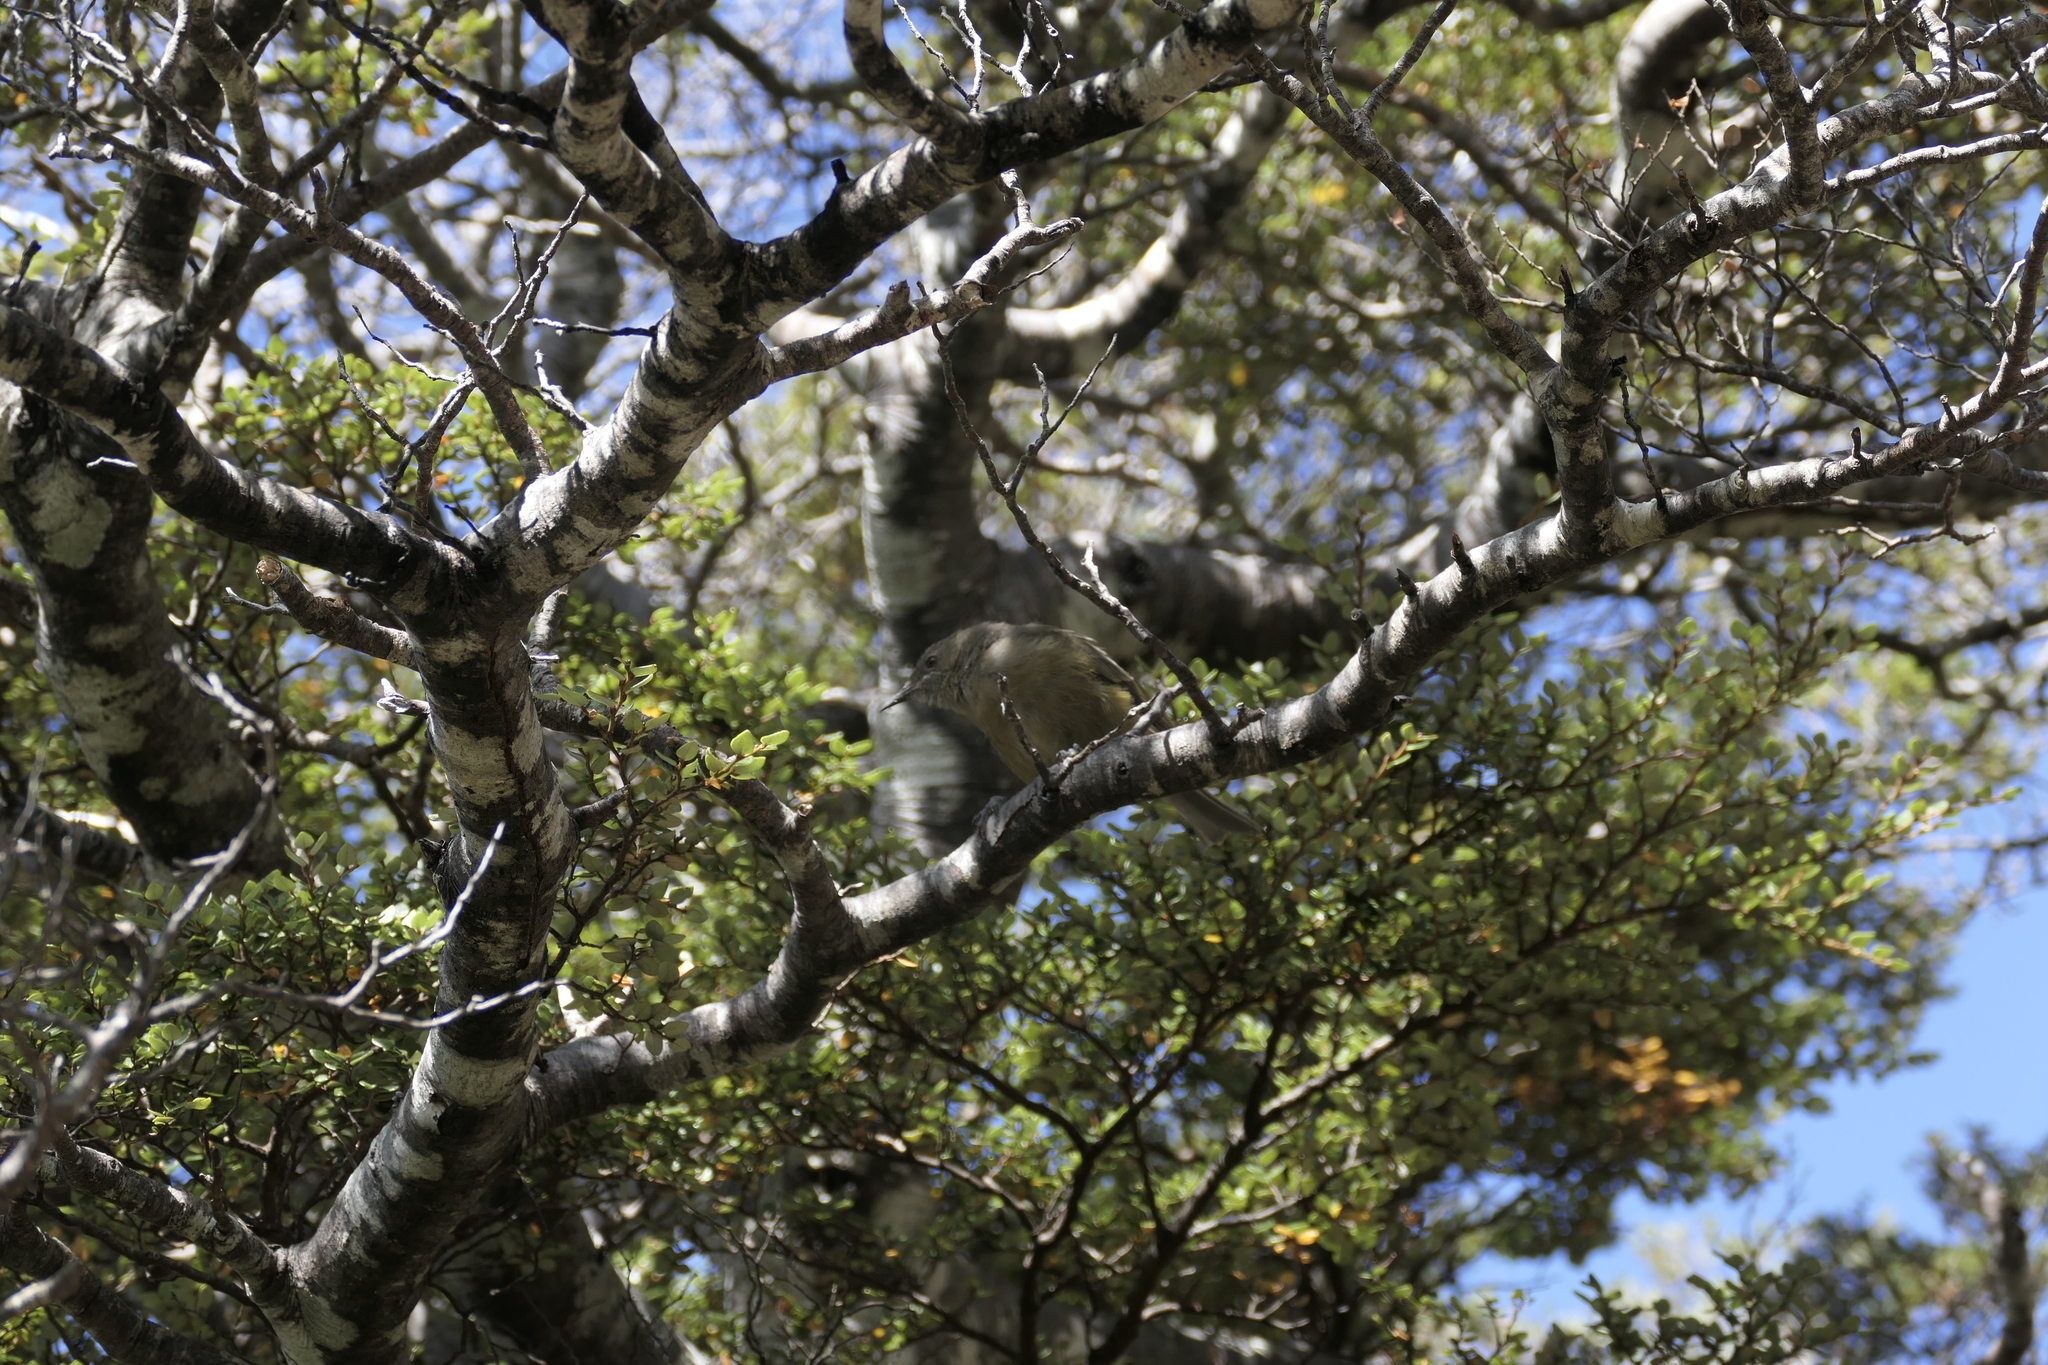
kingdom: Animalia
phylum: Chordata
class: Aves
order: Passeriformes
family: Meliphagidae
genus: Anthornis
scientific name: Anthornis melanura
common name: New zealand bellbird
